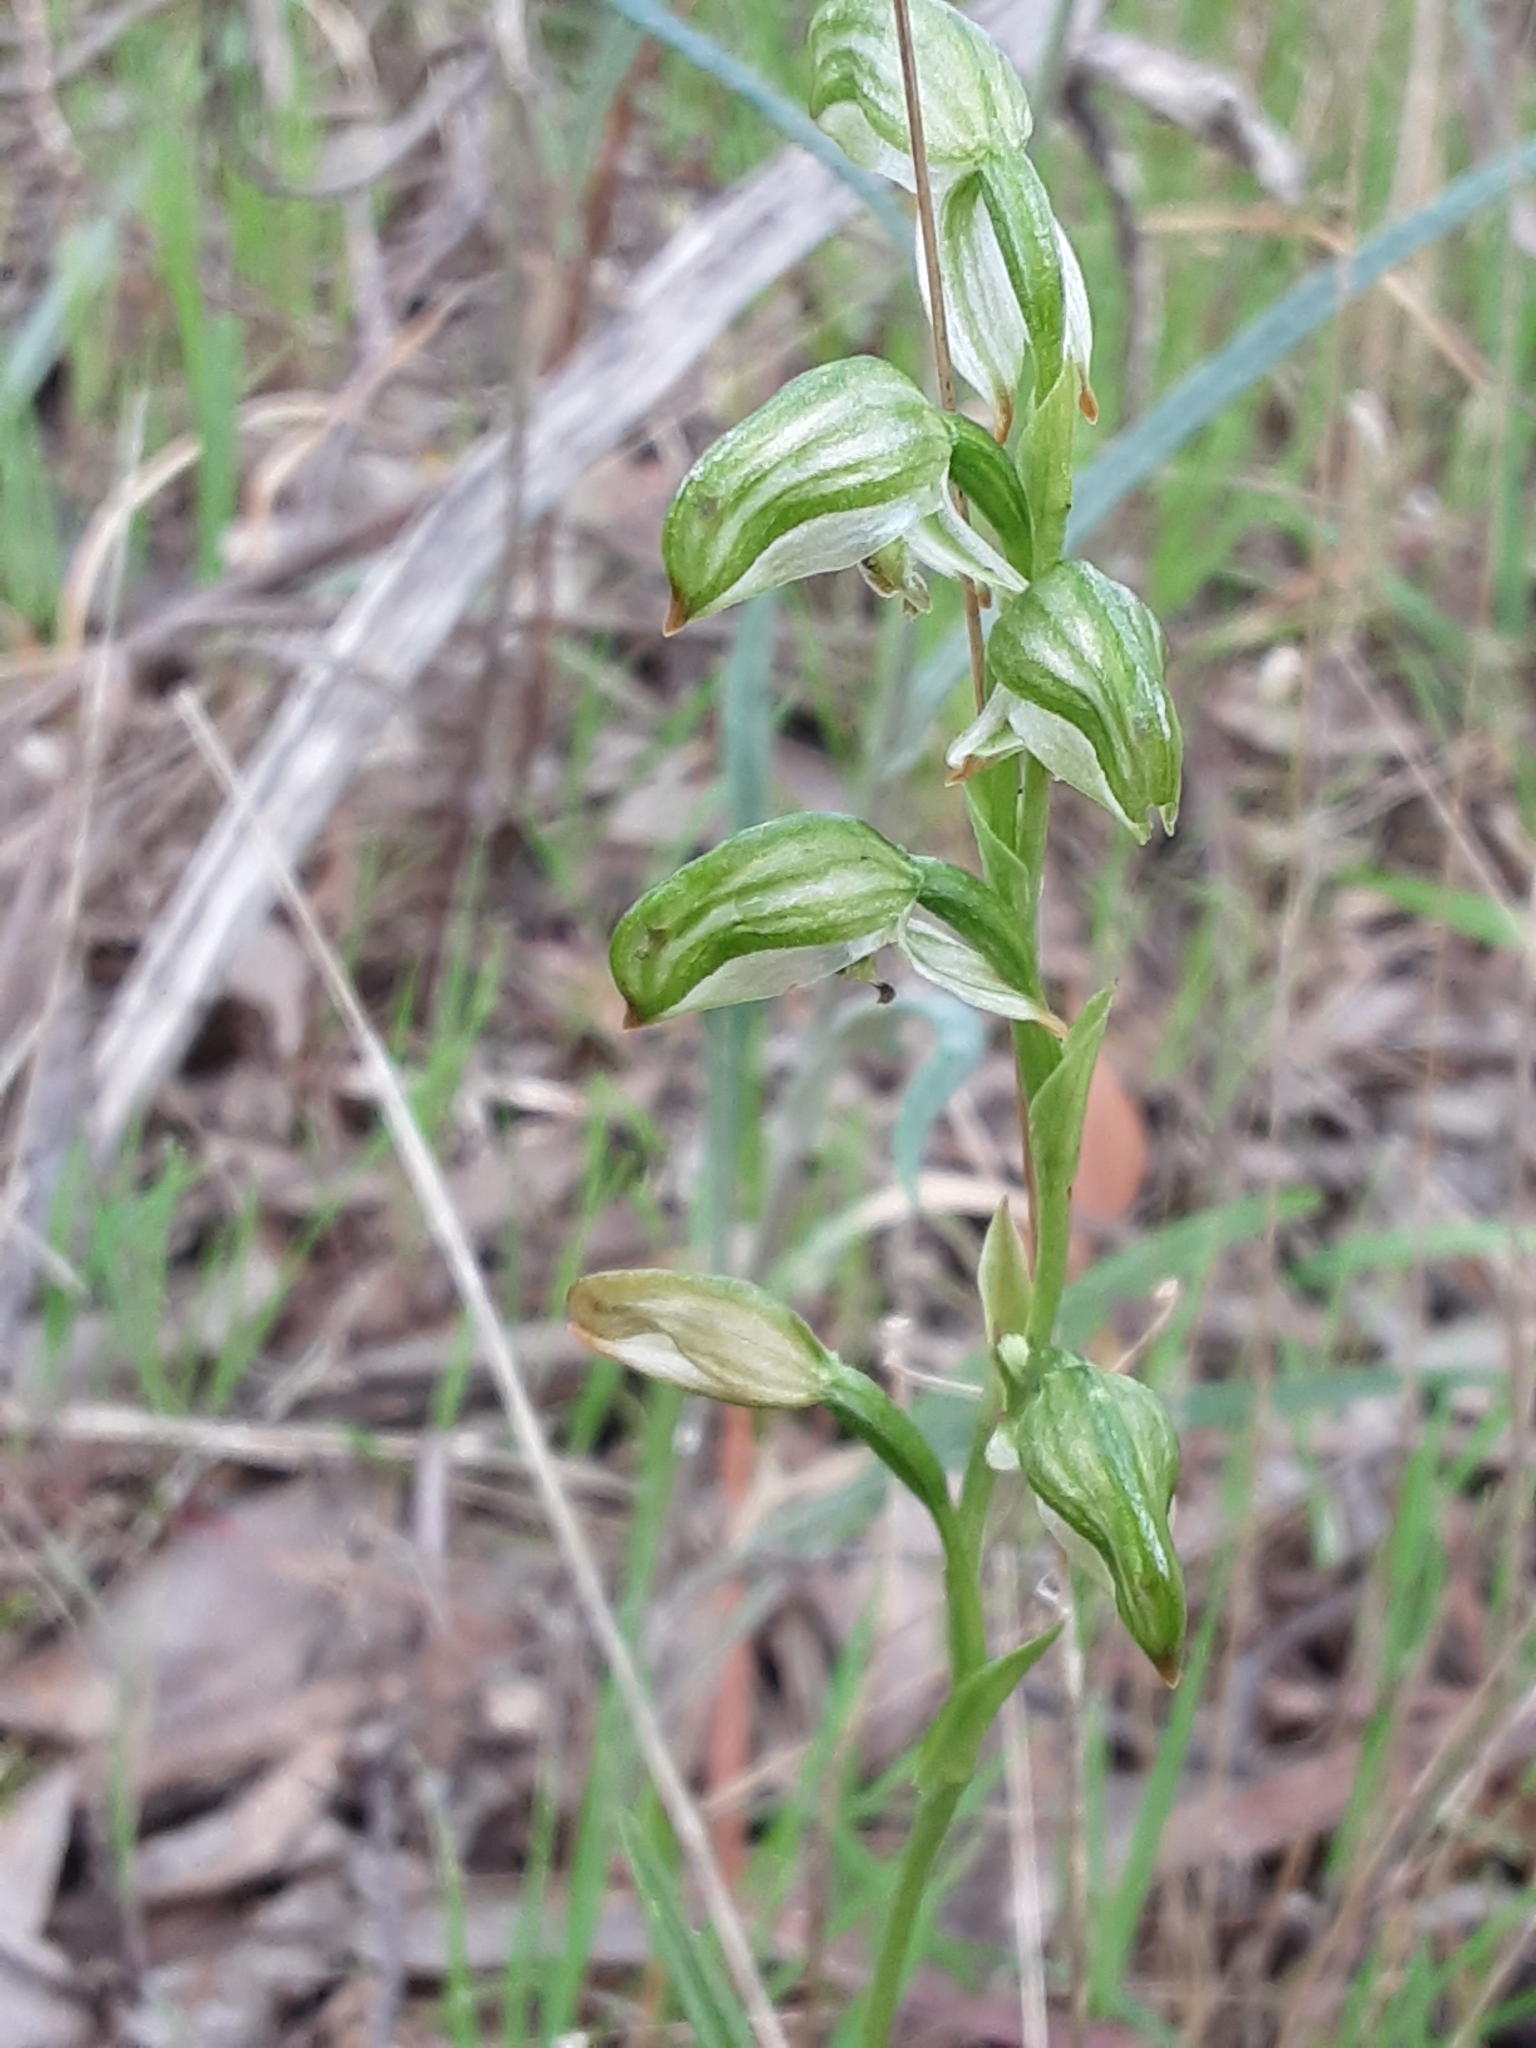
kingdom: Plantae
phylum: Tracheophyta
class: Liliopsida
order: Asparagales
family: Orchidaceae
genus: Pterostylis
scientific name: Pterostylis melagramma
